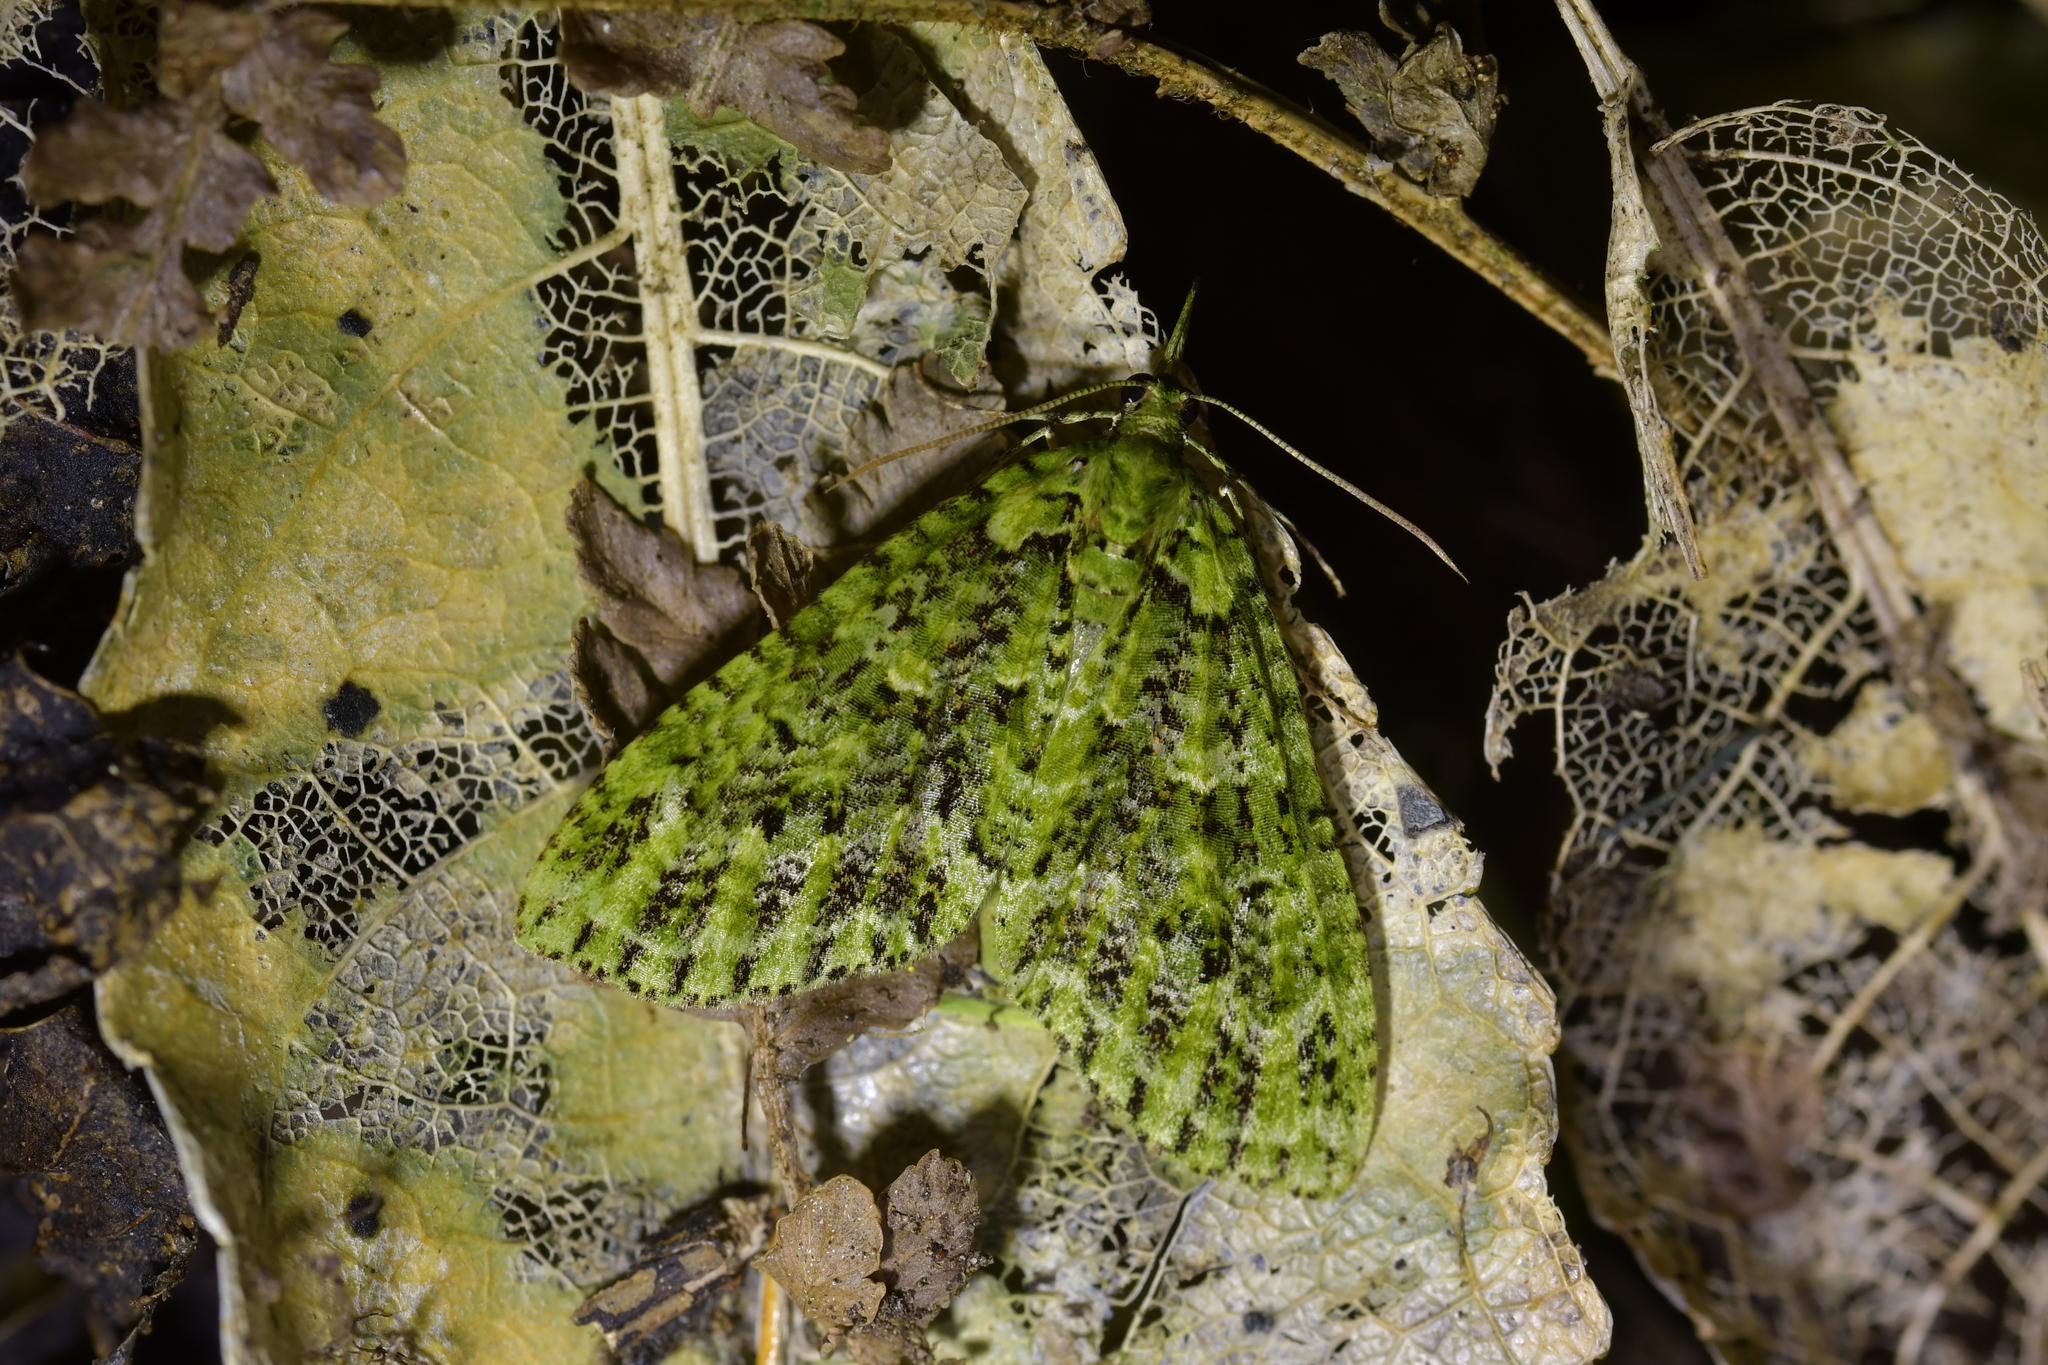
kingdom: Animalia
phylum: Arthropoda
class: Insecta
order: Lepidoptera
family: Geometridae
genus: Tatosoma
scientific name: Tatosoma tipulata
